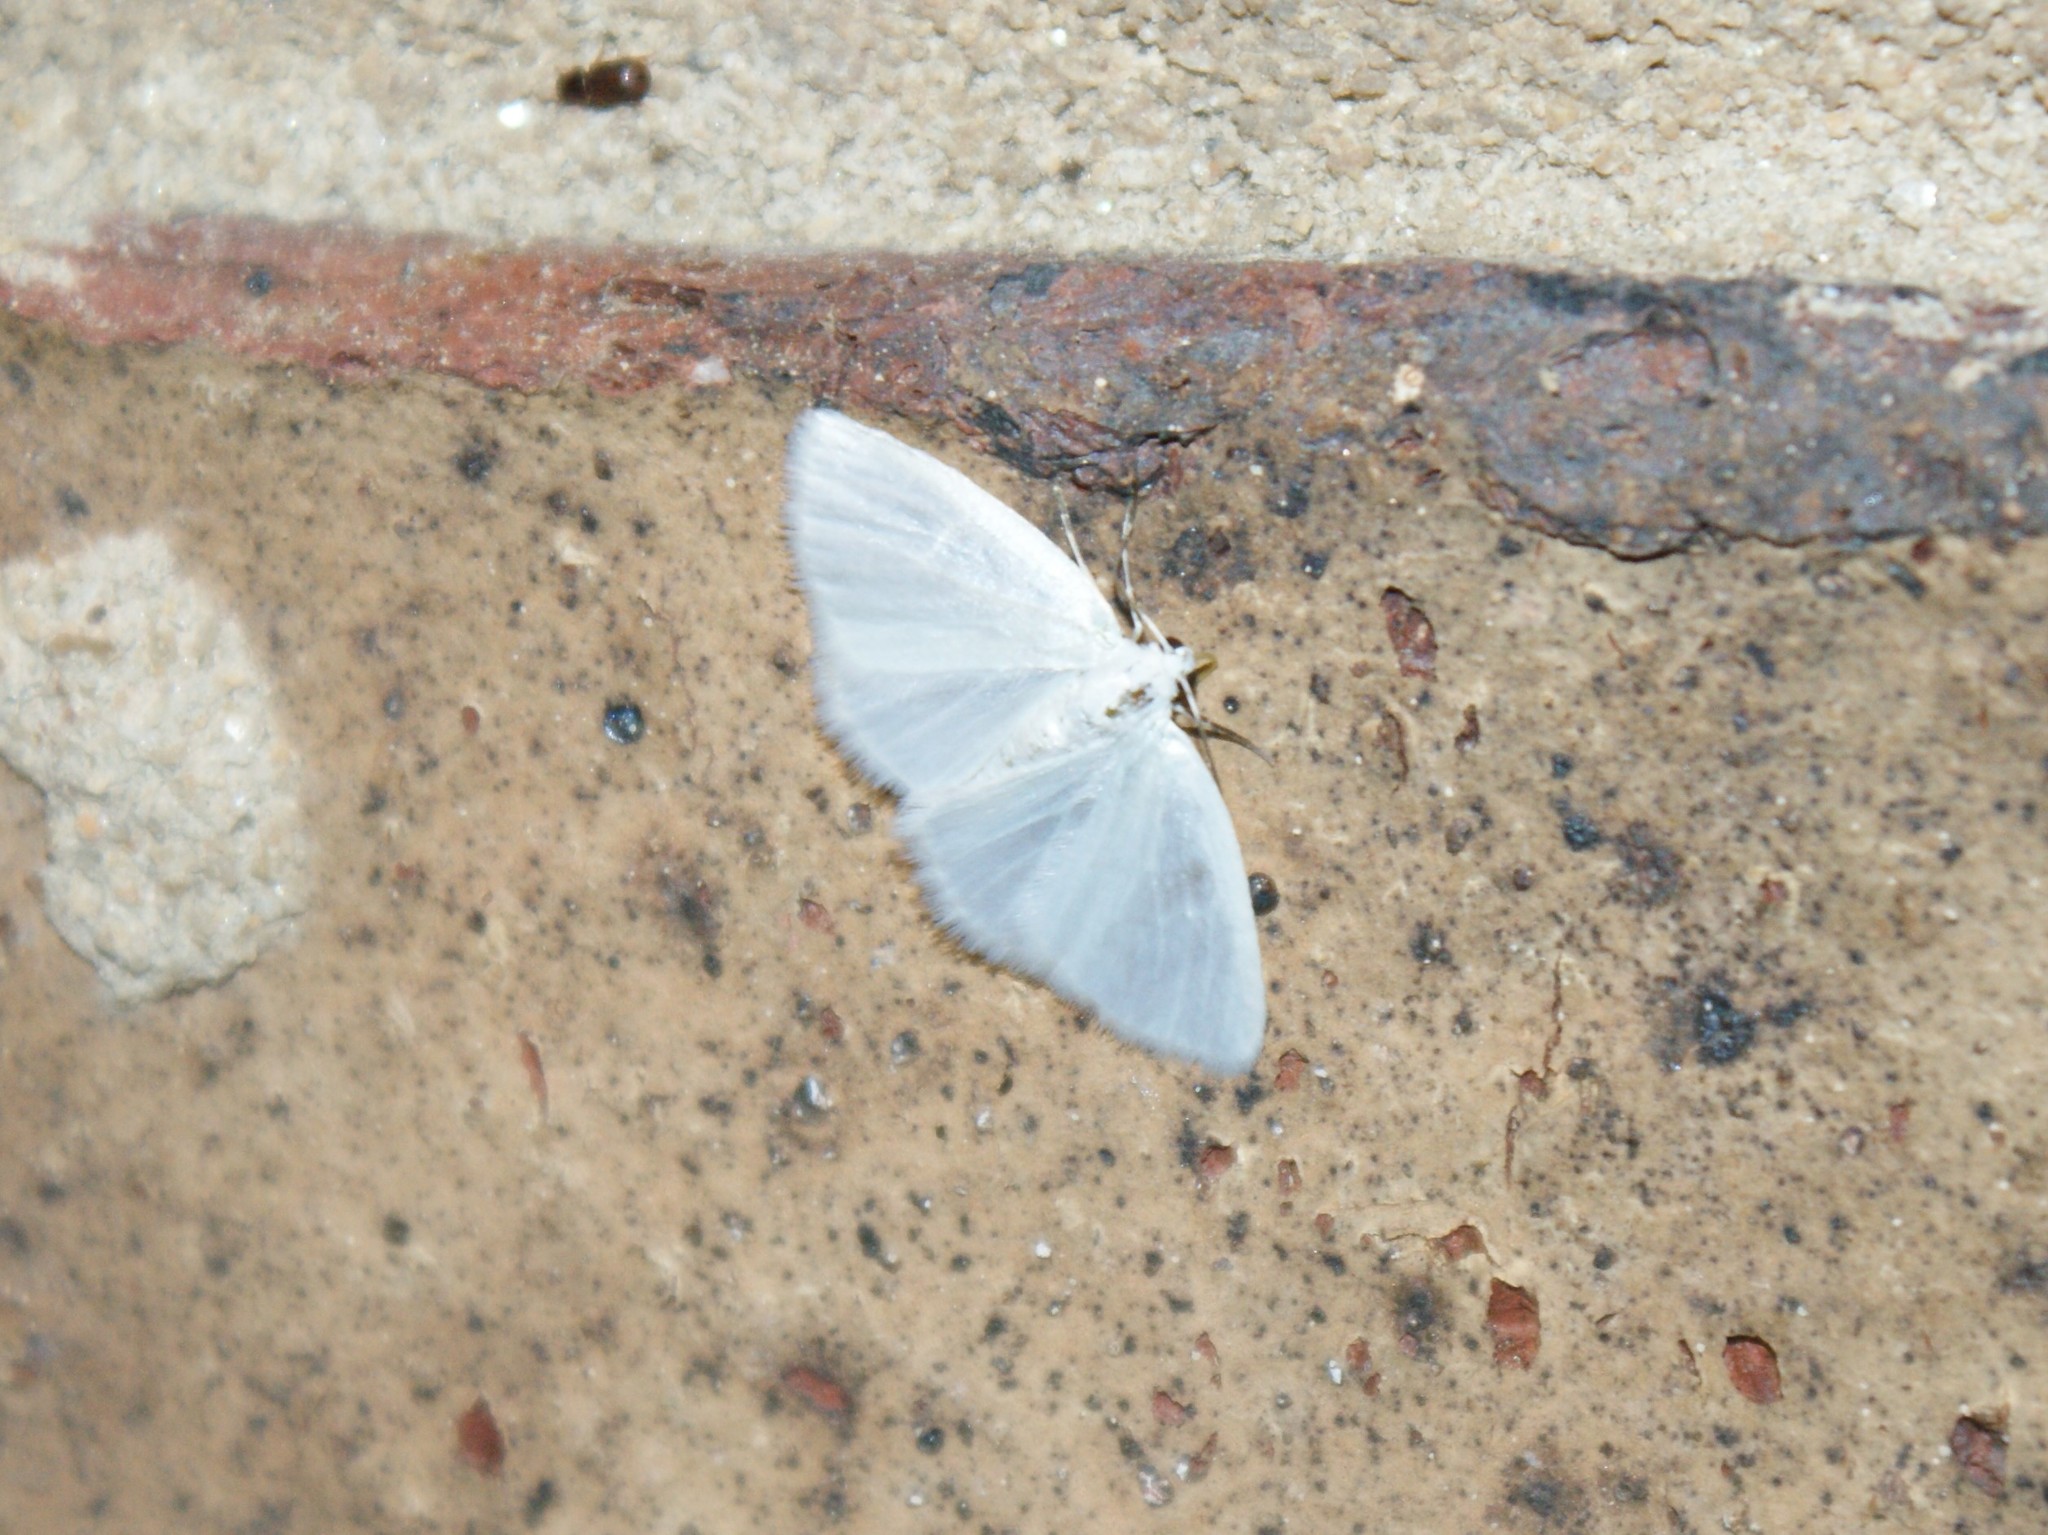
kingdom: Animalia
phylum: Arthropoda
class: Insecta
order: Lepidoptera
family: Geometridae
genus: Lomographa
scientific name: Lomographa vestaliata
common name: White spring moth
